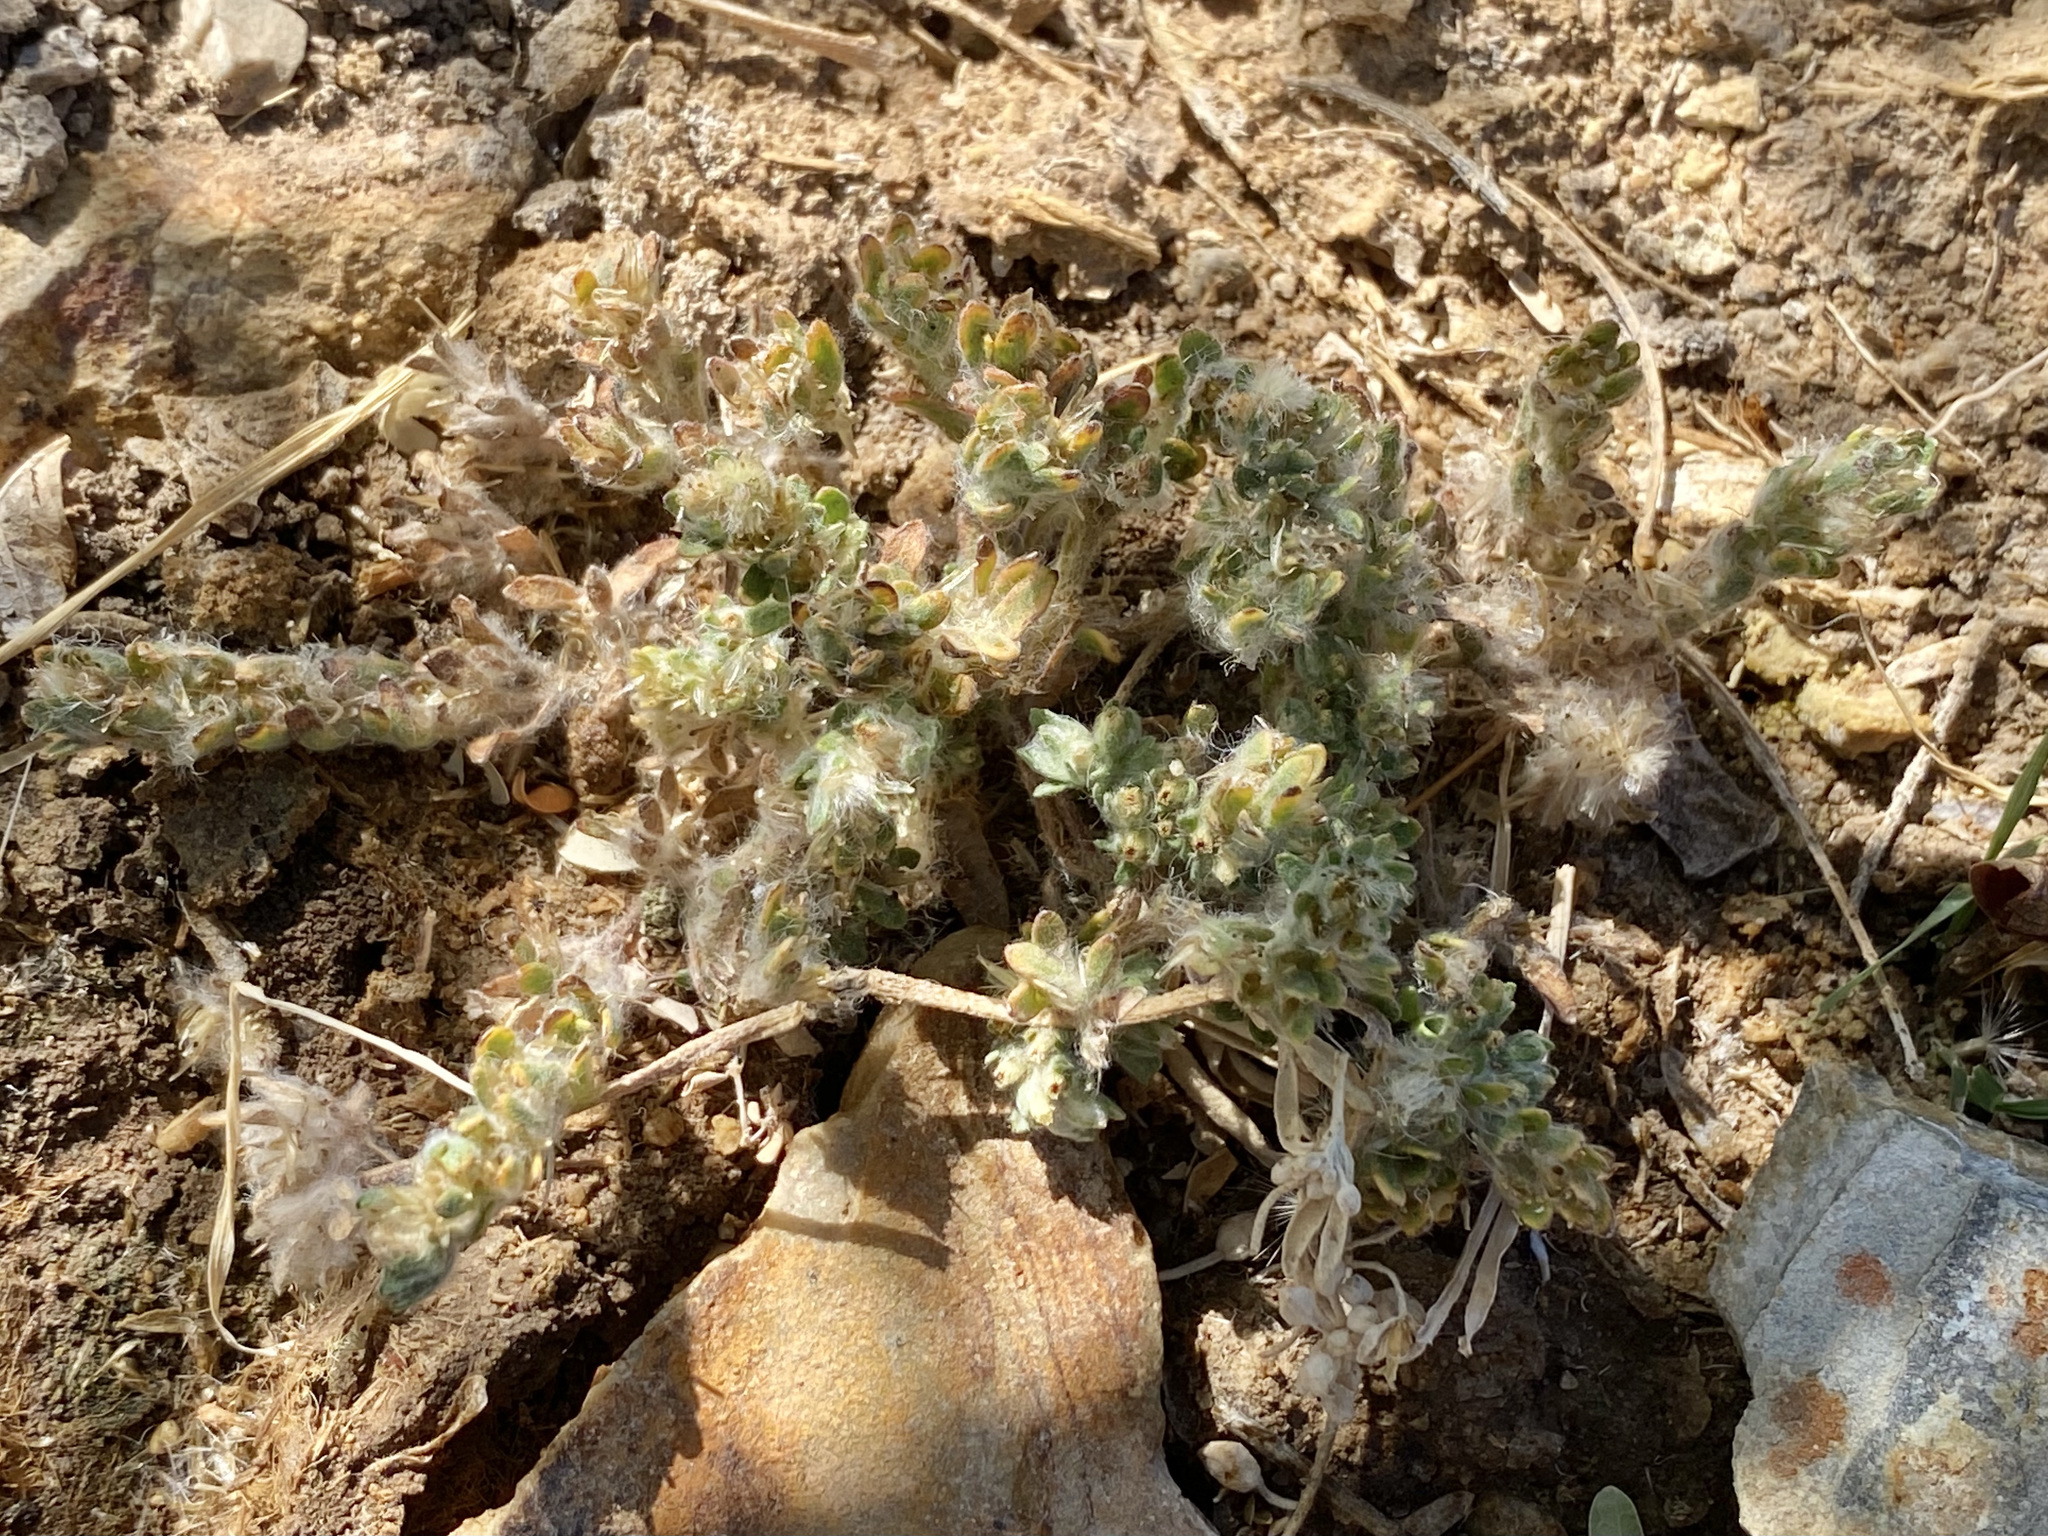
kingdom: Plantae
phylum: Tracheophyta
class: Magnoliopsida
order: Asterales
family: Asteraceae
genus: Lasiopogon
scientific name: Lasiopogon glomerulatus
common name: Green cat thorn
